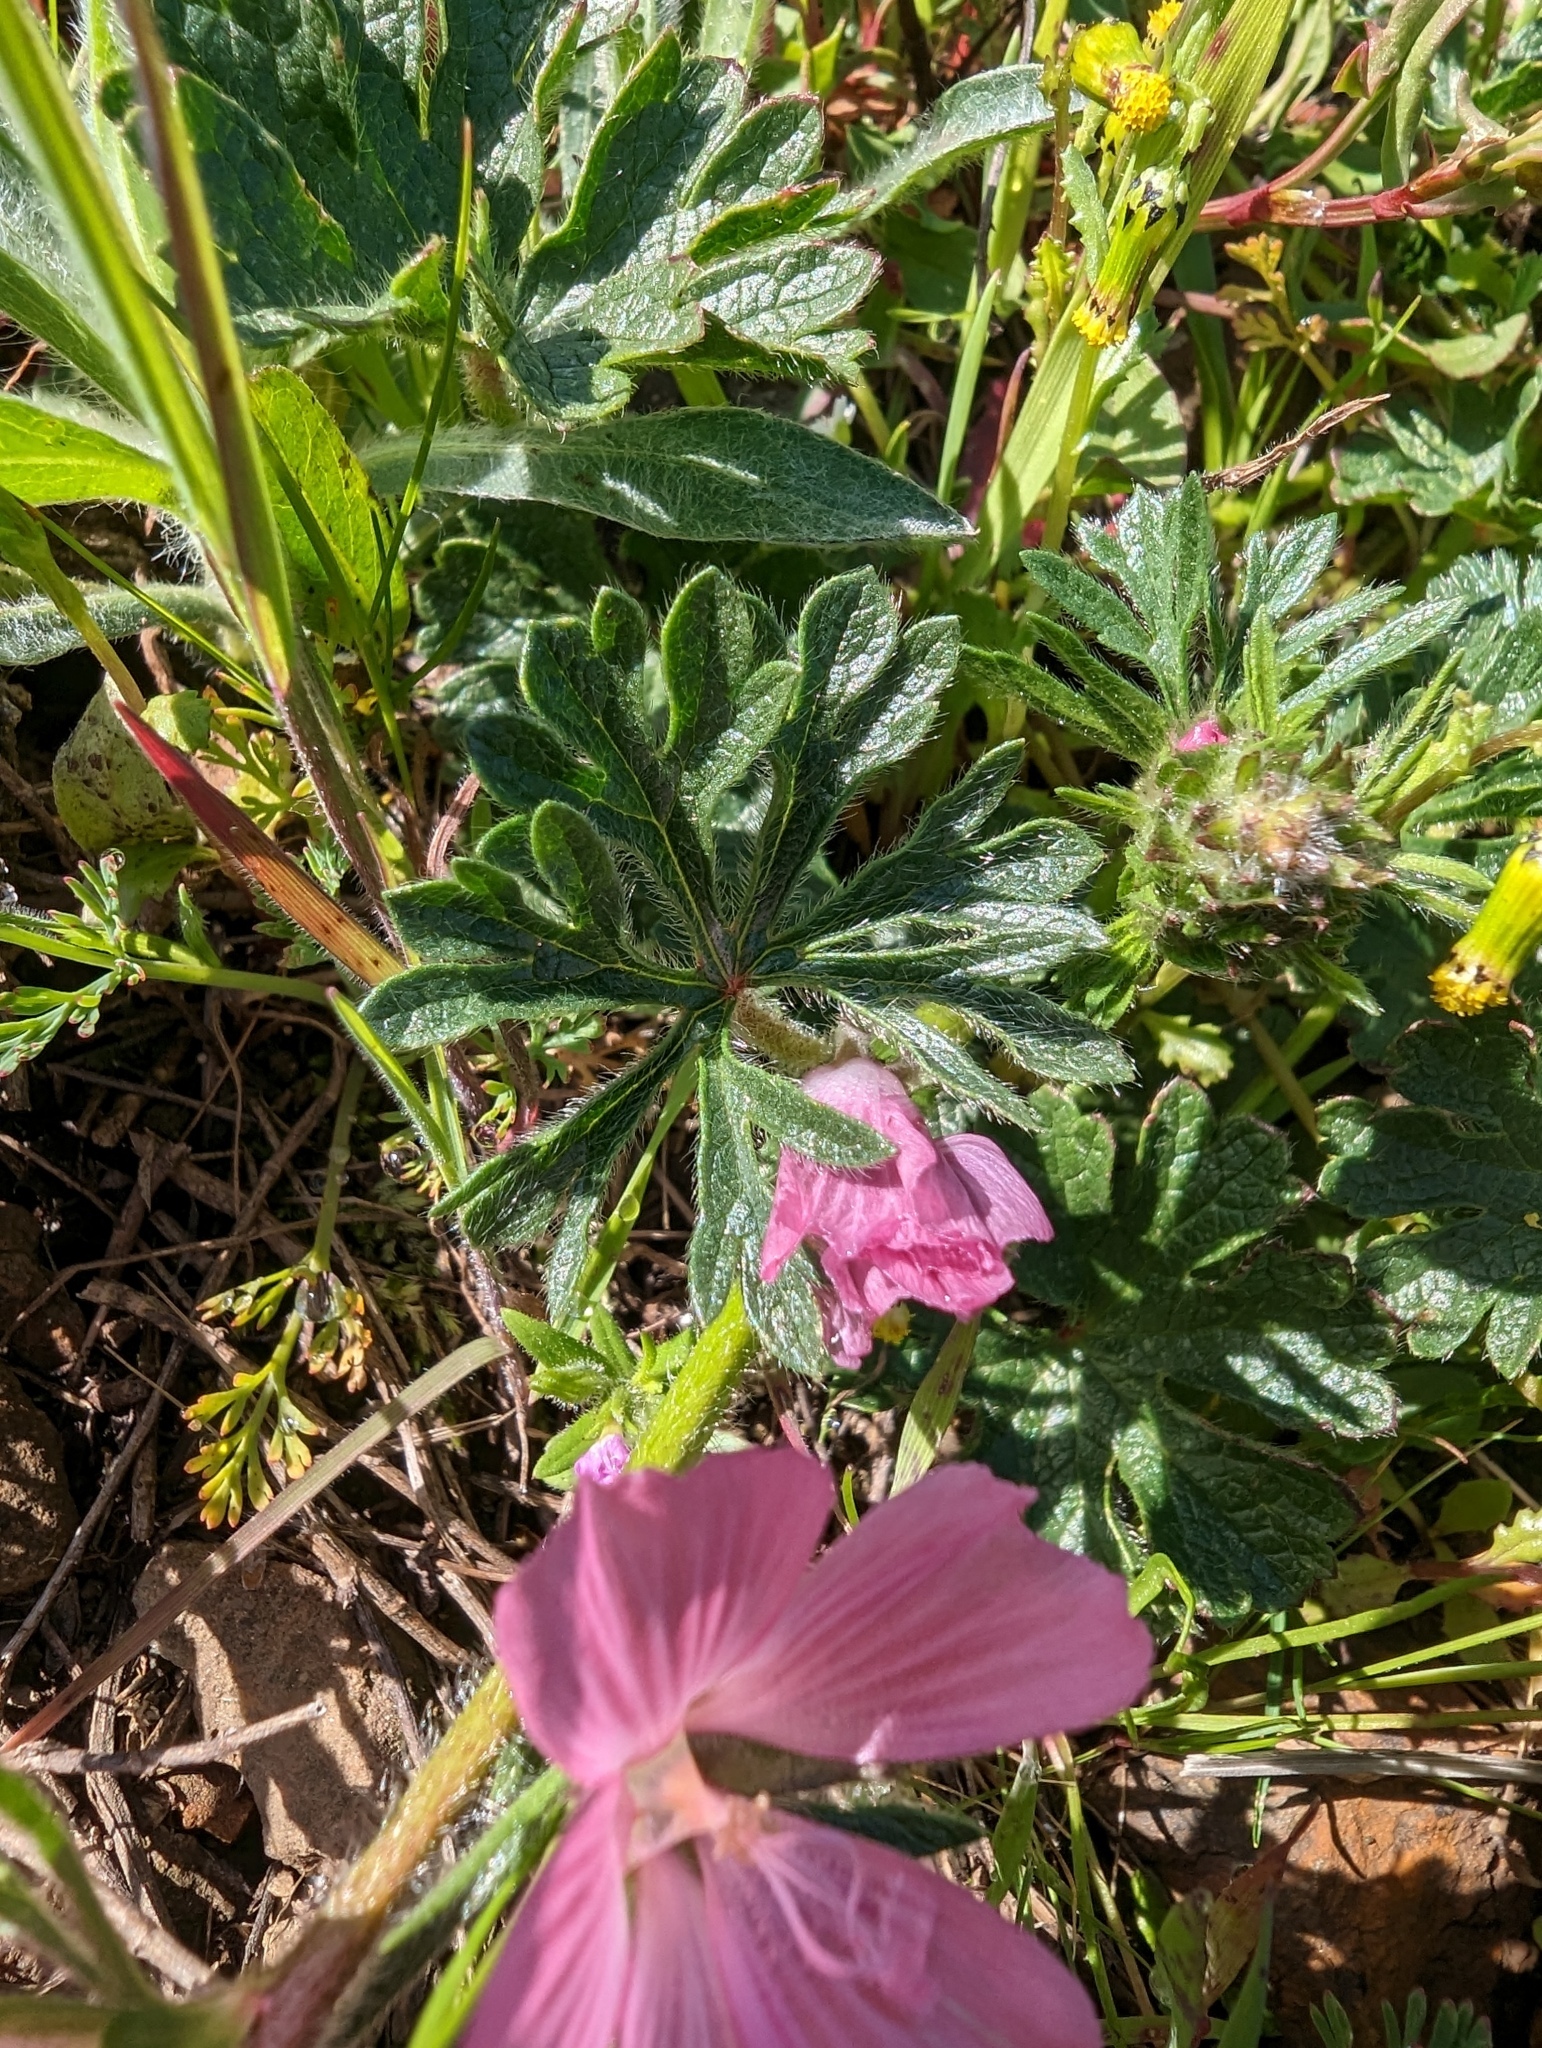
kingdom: Plantae
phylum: Tracheophyta
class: Magnoliopsida
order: Malvales
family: Malvaceae
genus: Sidalcea
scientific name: Sidalcea malviflora
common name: Greek mallow
